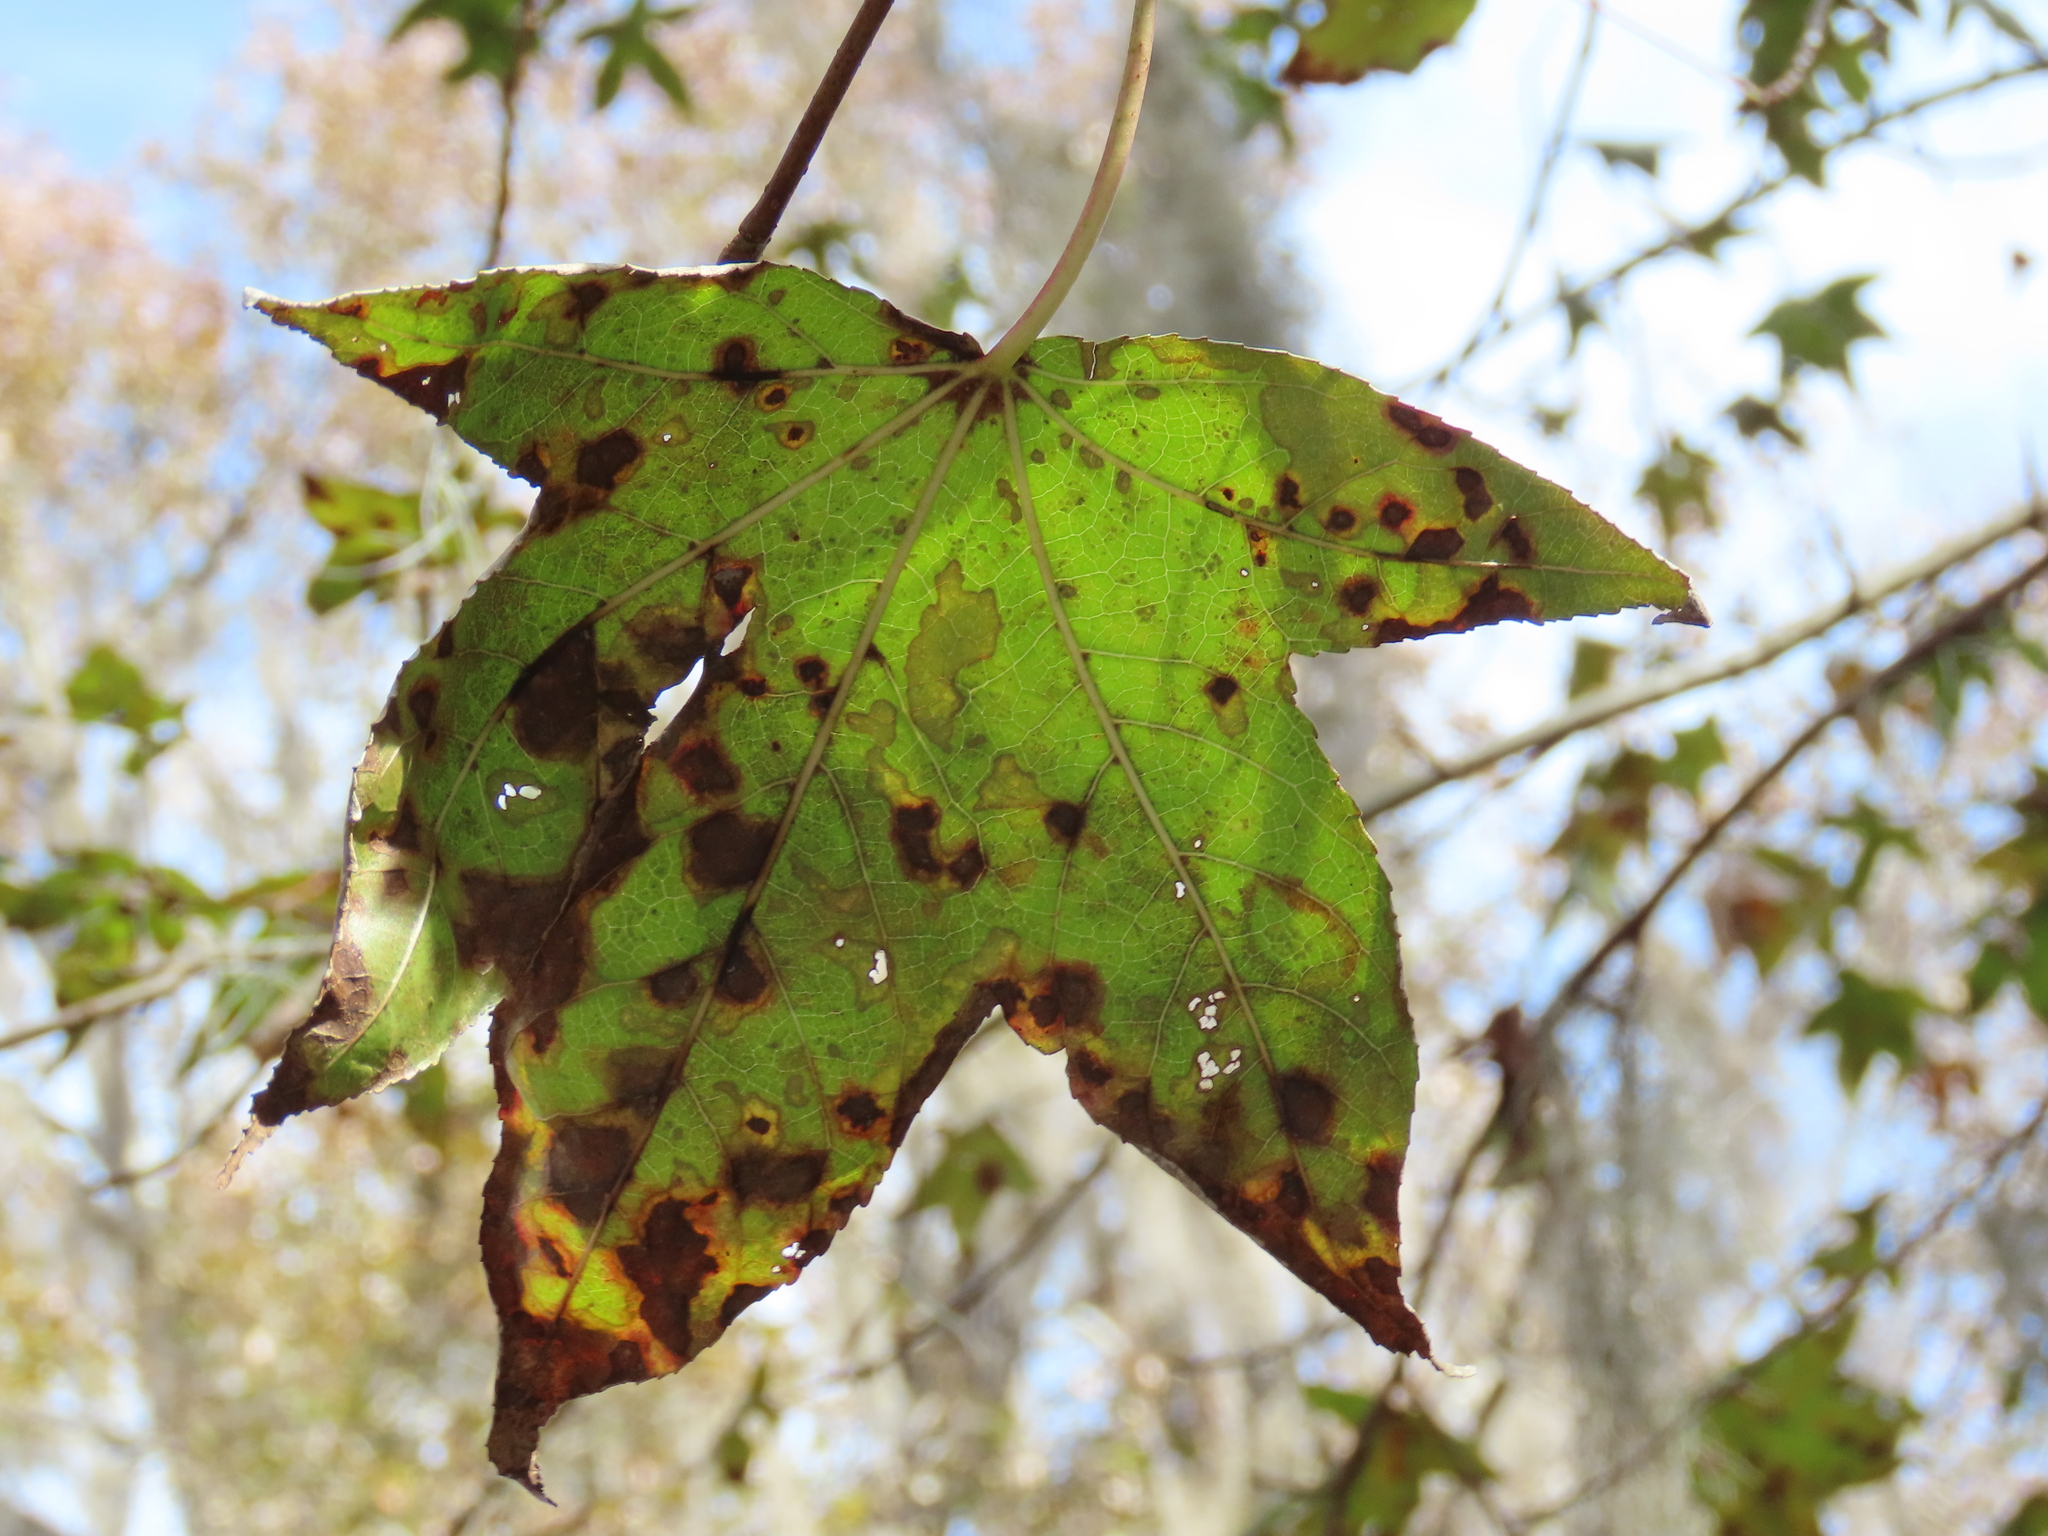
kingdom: Plantae
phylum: Tracheophyta
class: Magnoliopsida
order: Saxifragales
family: Altingiaceae
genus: Liquidambar
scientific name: Liquidambar styraciflua
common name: Sweet gum
